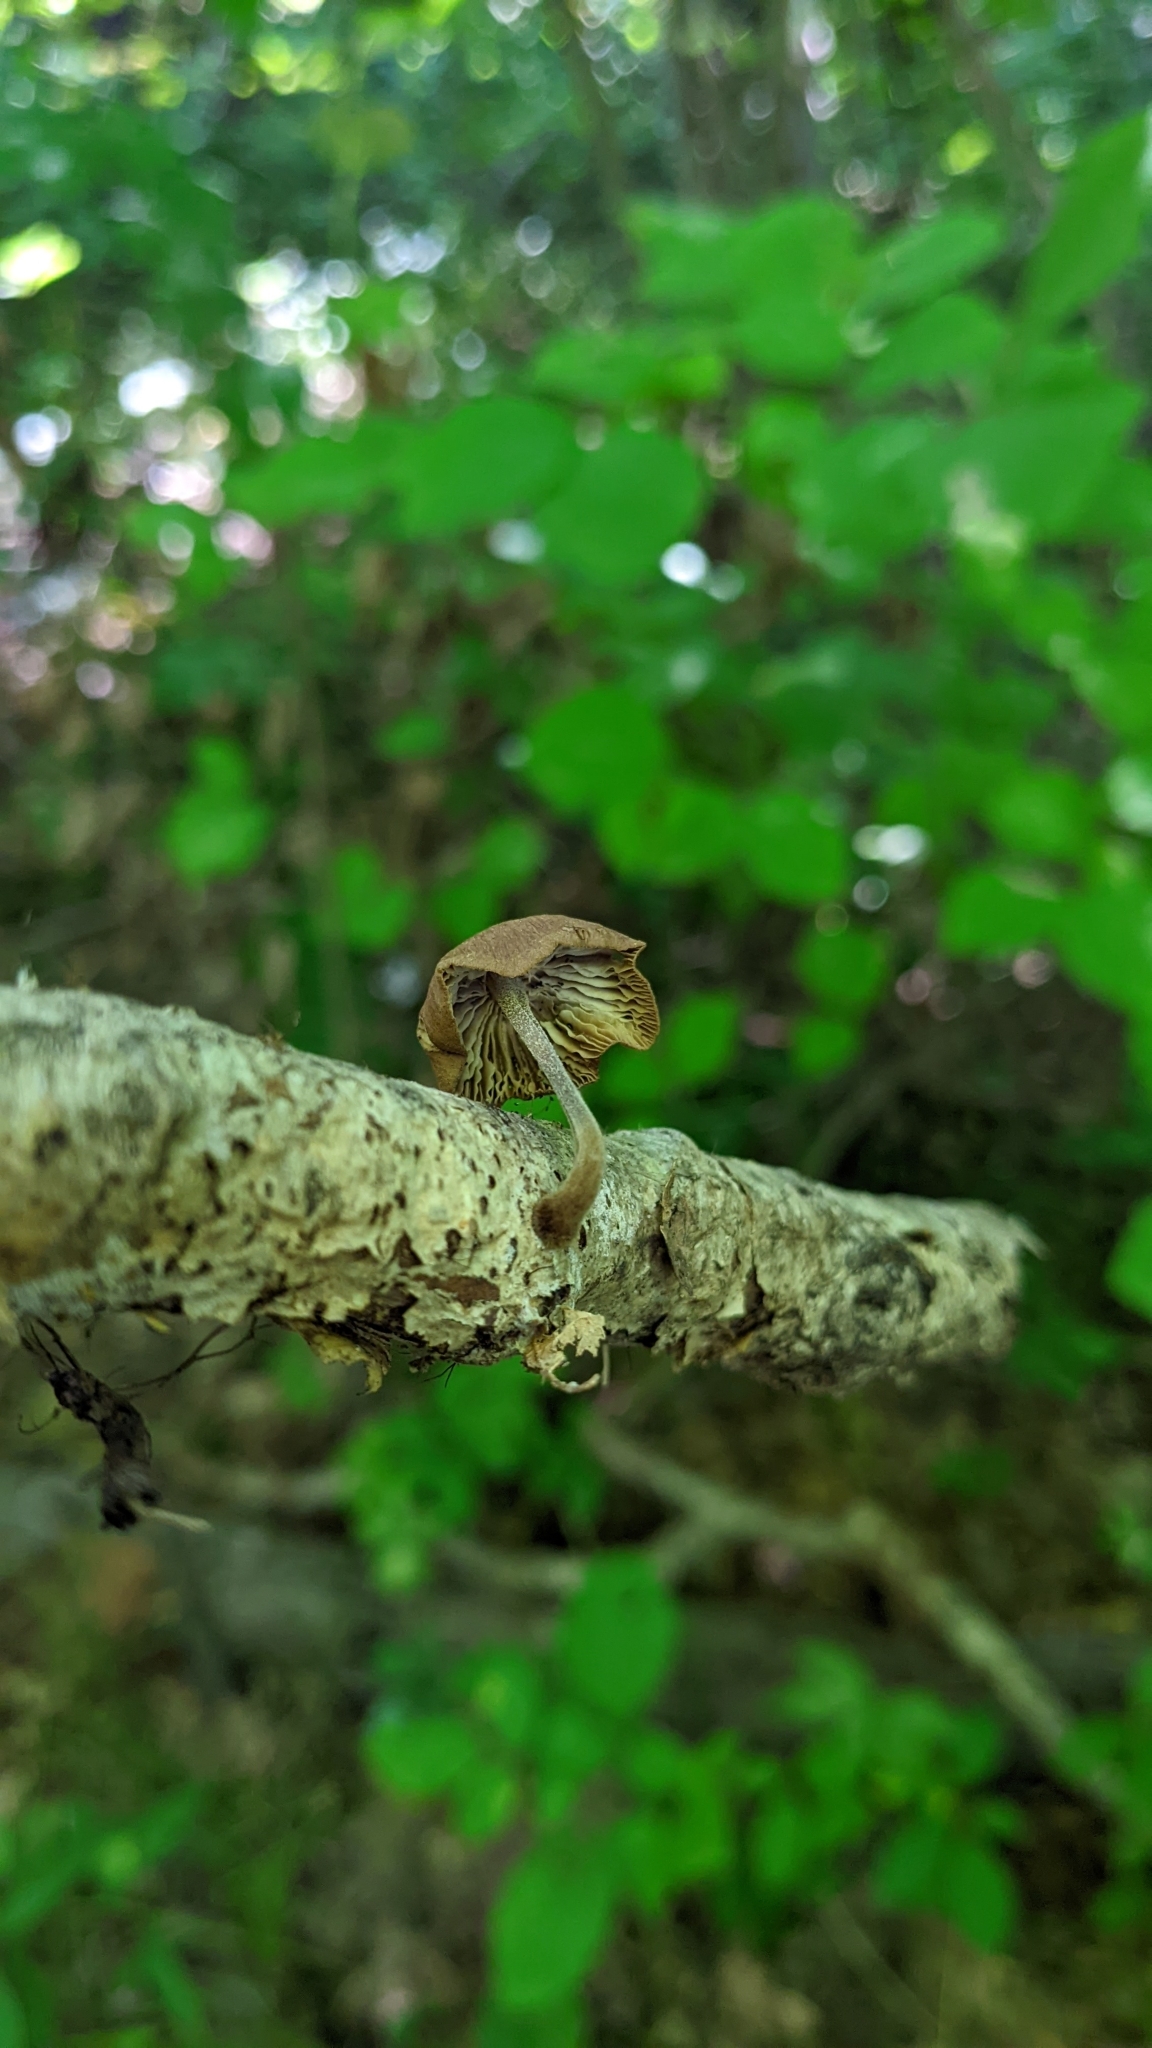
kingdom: Fungi
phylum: Basidiomycota
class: Agaricomycetes
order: Agaricales
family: Omphalotaceae
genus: Collybiopsis
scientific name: Collybiopsis dichroa
